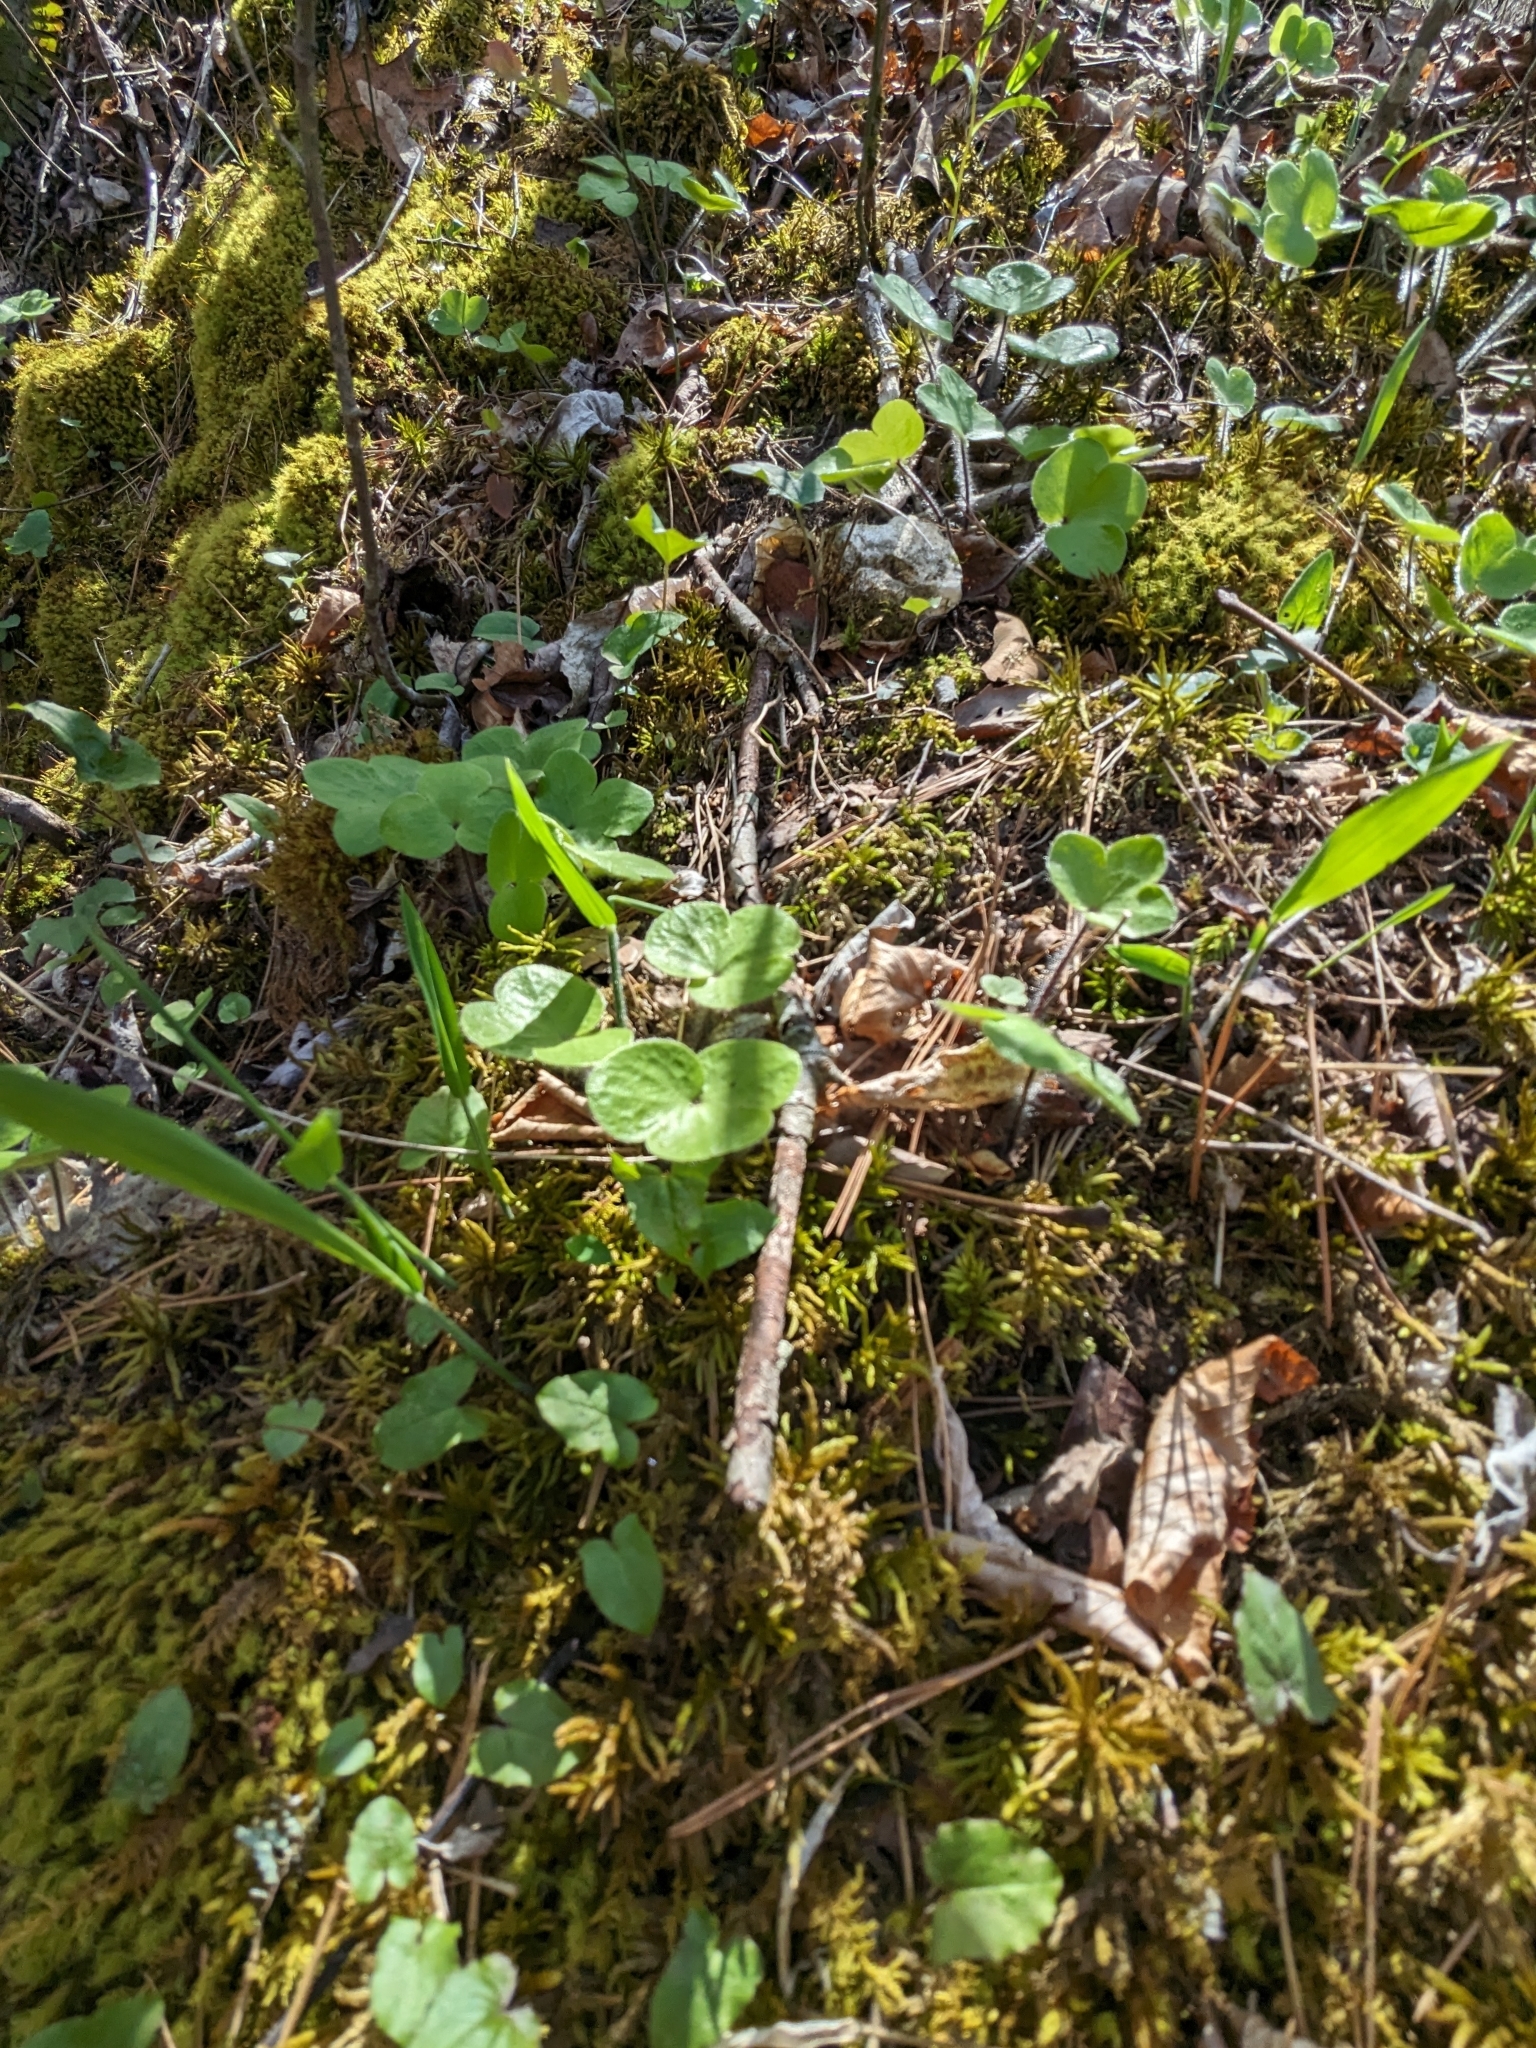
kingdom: Plantae
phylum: Tracheophyta
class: Magnoliopsida
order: Ranunculales
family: Ranunculaceae
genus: Hepatica
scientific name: Hepatica americana
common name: American hepatica
